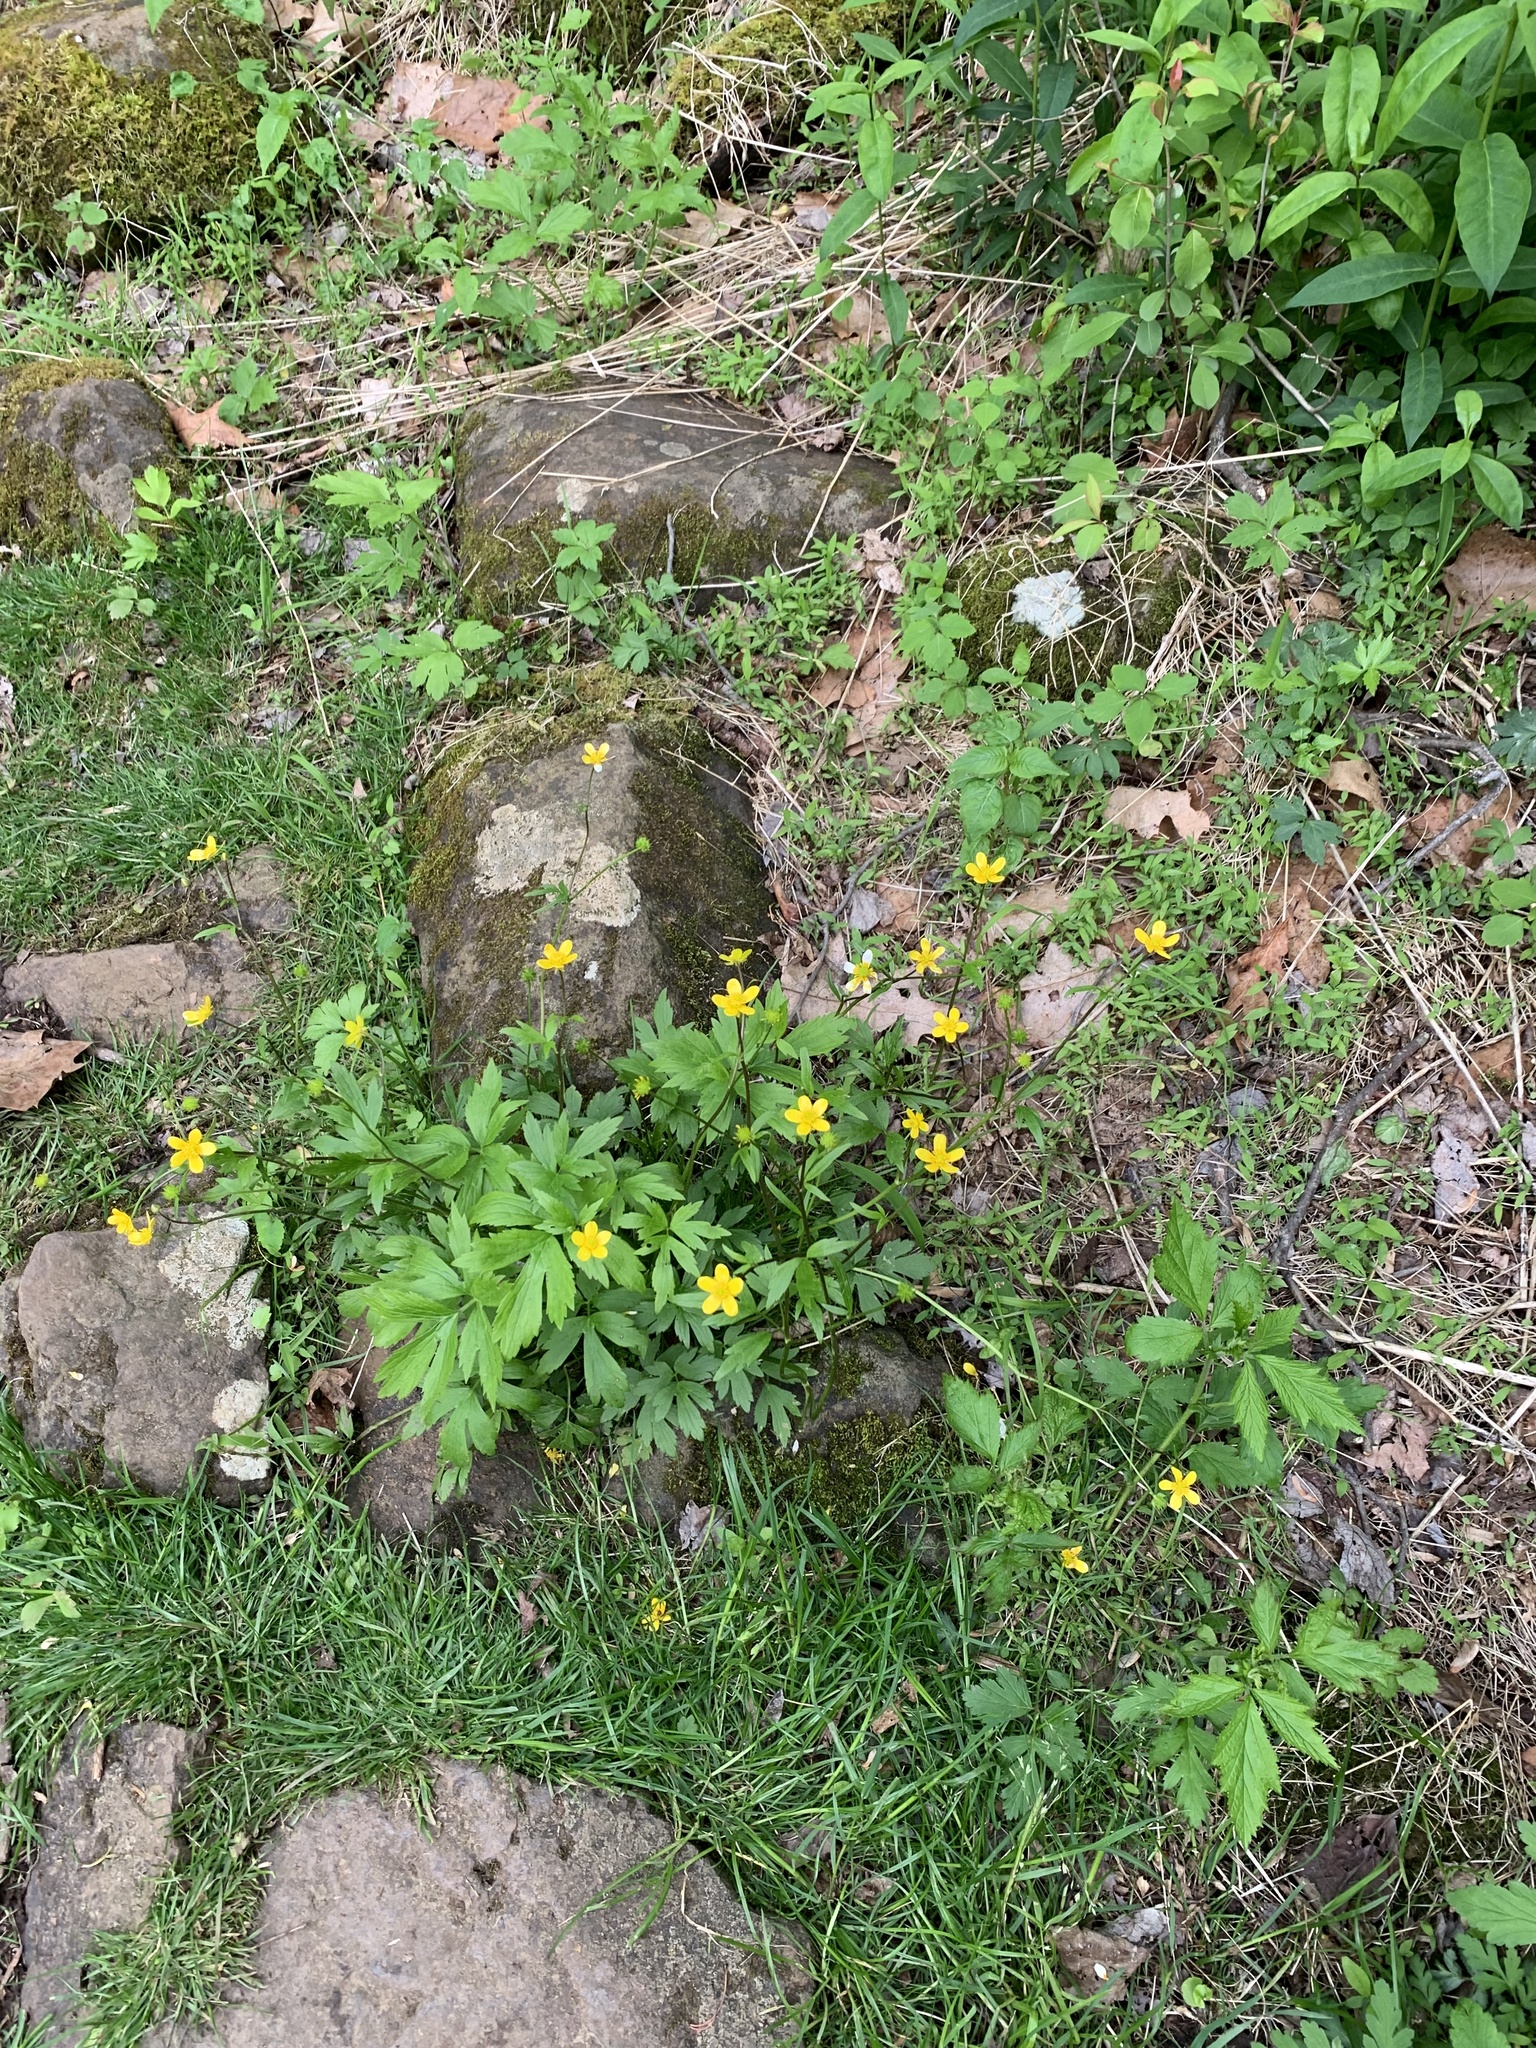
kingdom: Plantae
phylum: Tracheophyta
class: Magnoliopsida
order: Ranunculales
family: Ranunculaceae
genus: Ranunculus
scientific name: Ranunculus hispidus
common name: Bristly buttercup
